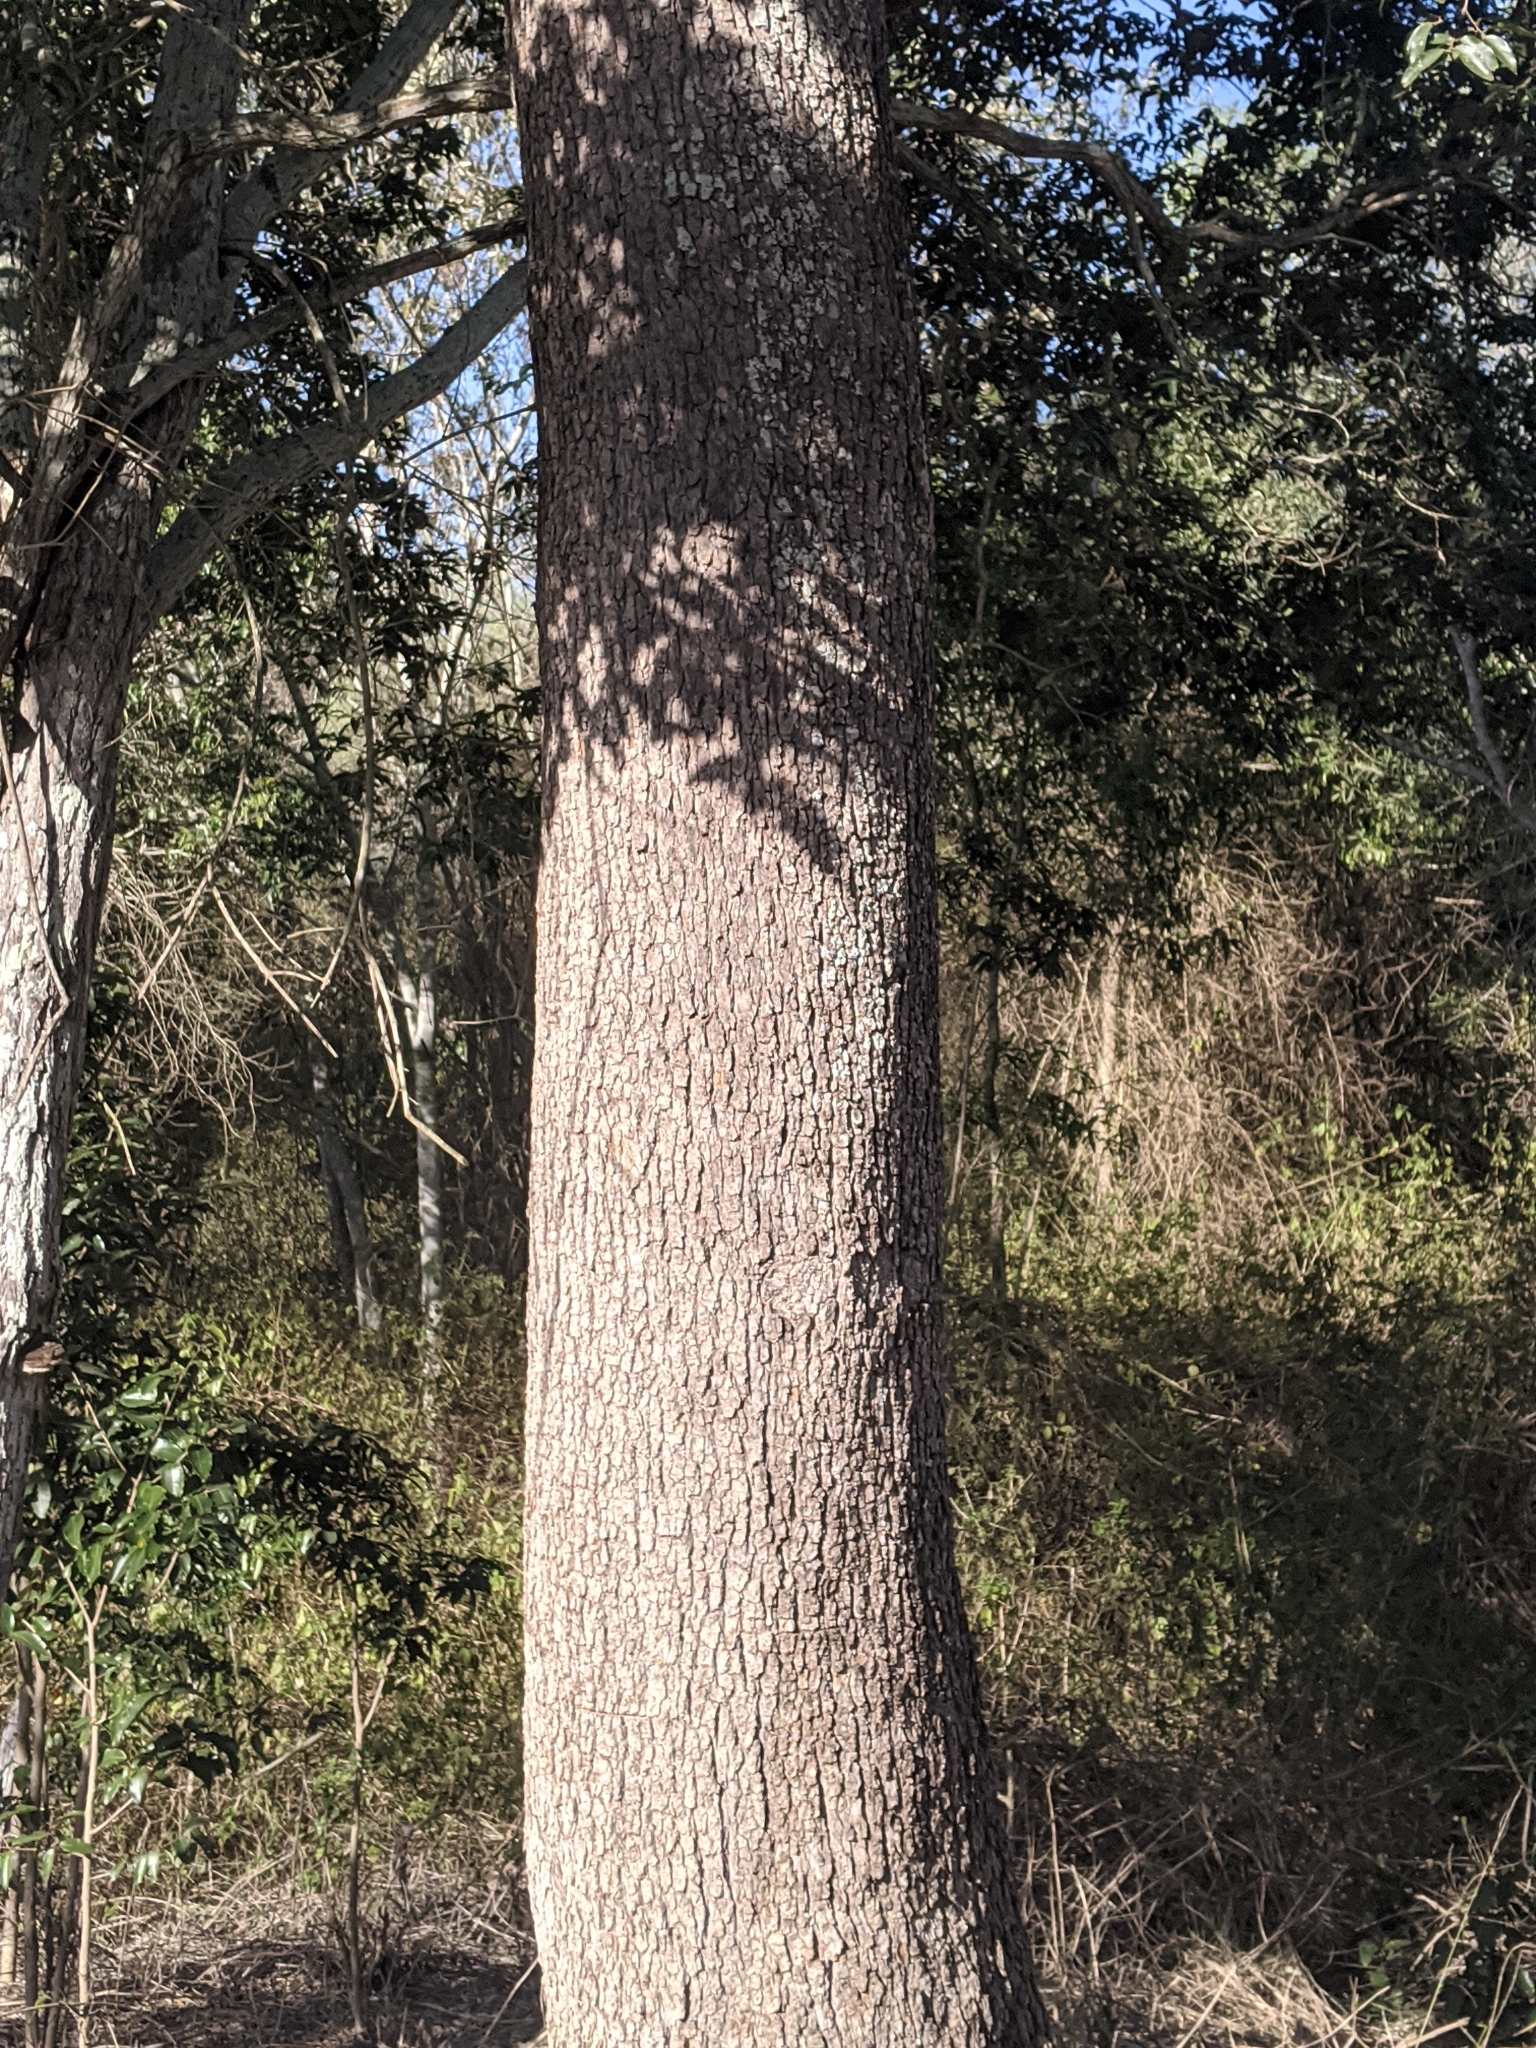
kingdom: Plantae
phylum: Tracheophyta
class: Magnoliopsida
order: Sapindales
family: Rutaceae
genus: Flindersia
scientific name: Flindersia xanthoxyla
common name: Long-jack
